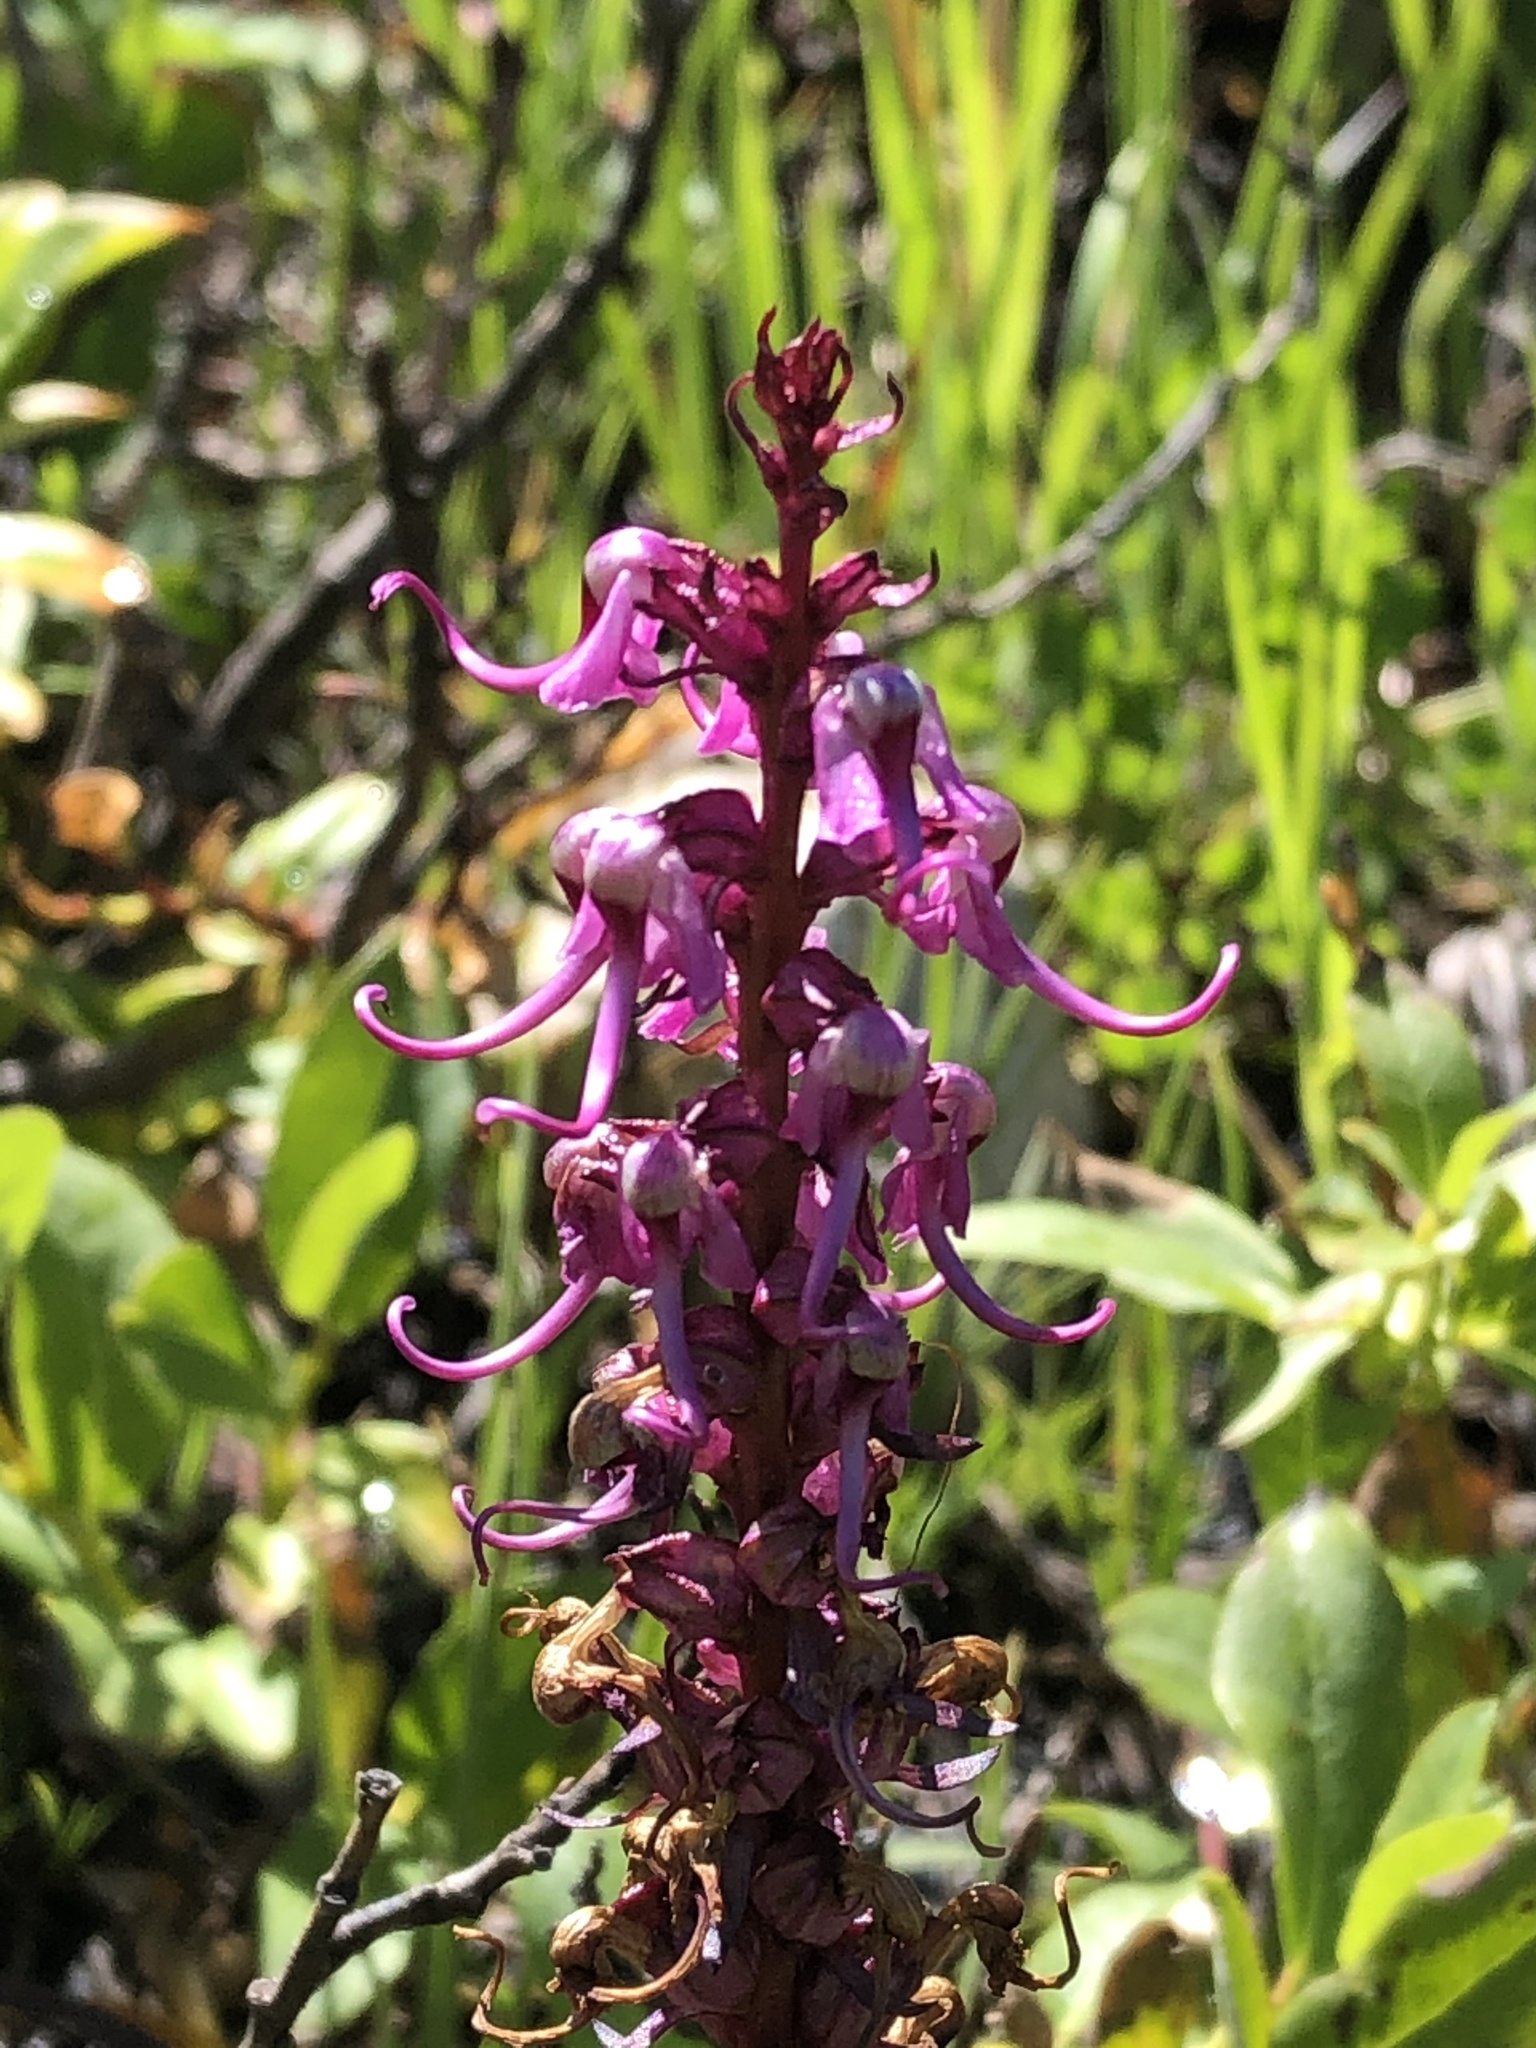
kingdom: Plantae
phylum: Tracheophyta
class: Magnoliopsida
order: Lamiales
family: Orobanchaceae
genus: Pedicularis
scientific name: Pedicularis groenlandica
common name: Elephant's-head
